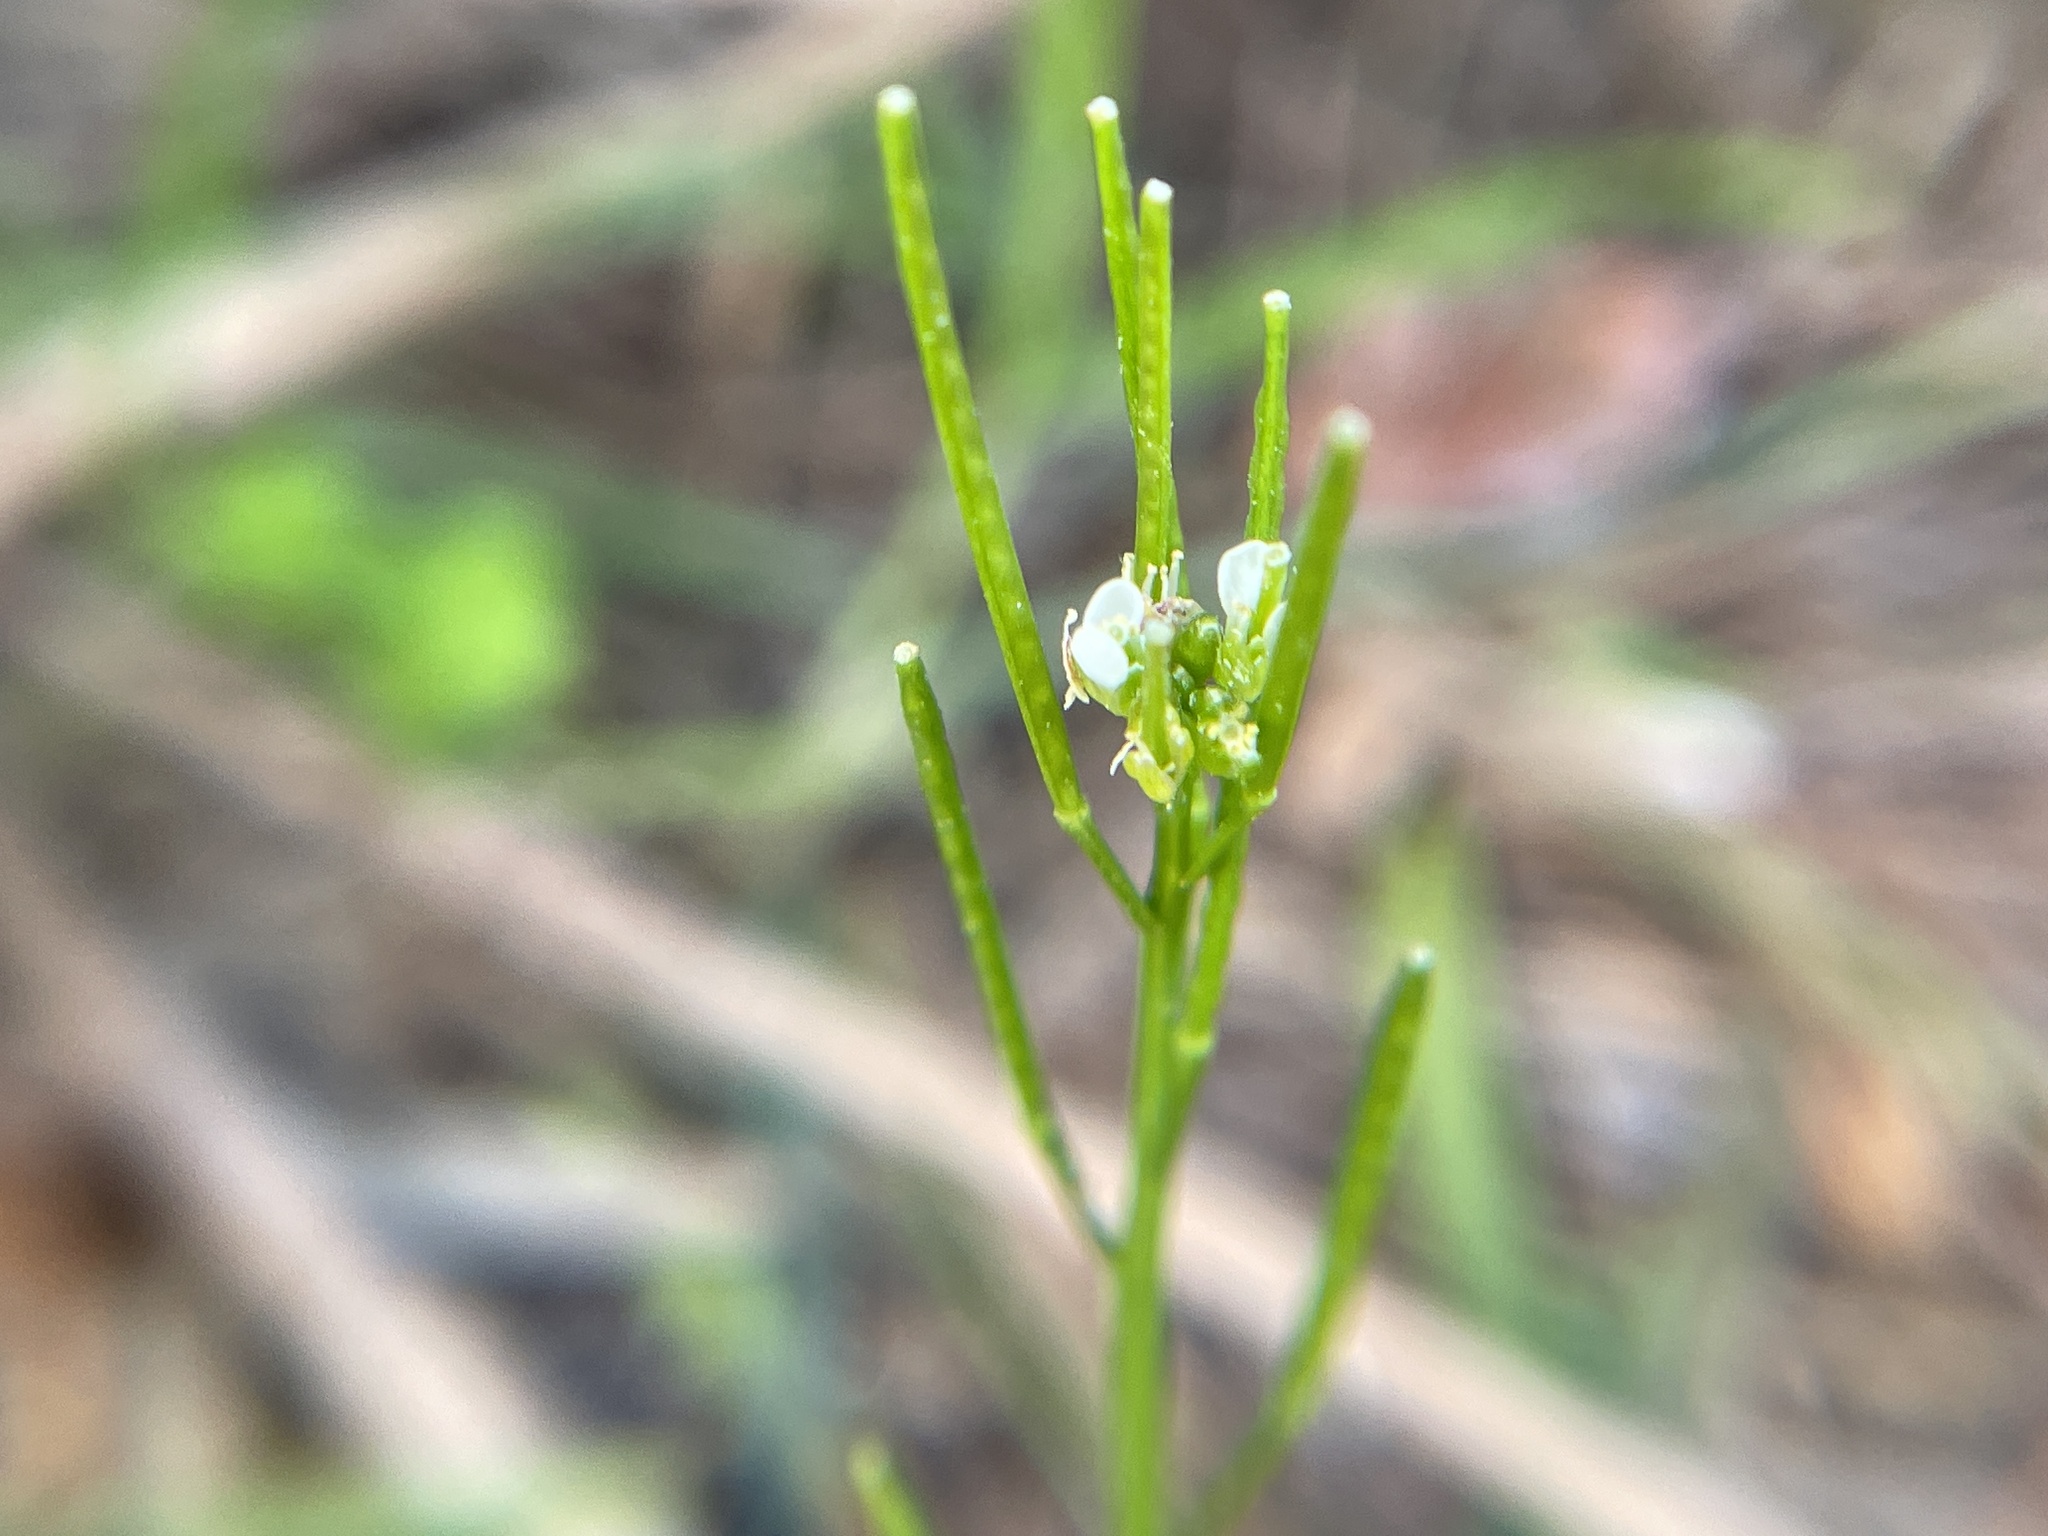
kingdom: Plantae
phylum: Tracheophyta
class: Magnoliopsida
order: Brassicales
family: Brassicaceae
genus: Cardamine
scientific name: Cardamine hirsuta
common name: Hairy bittercress
